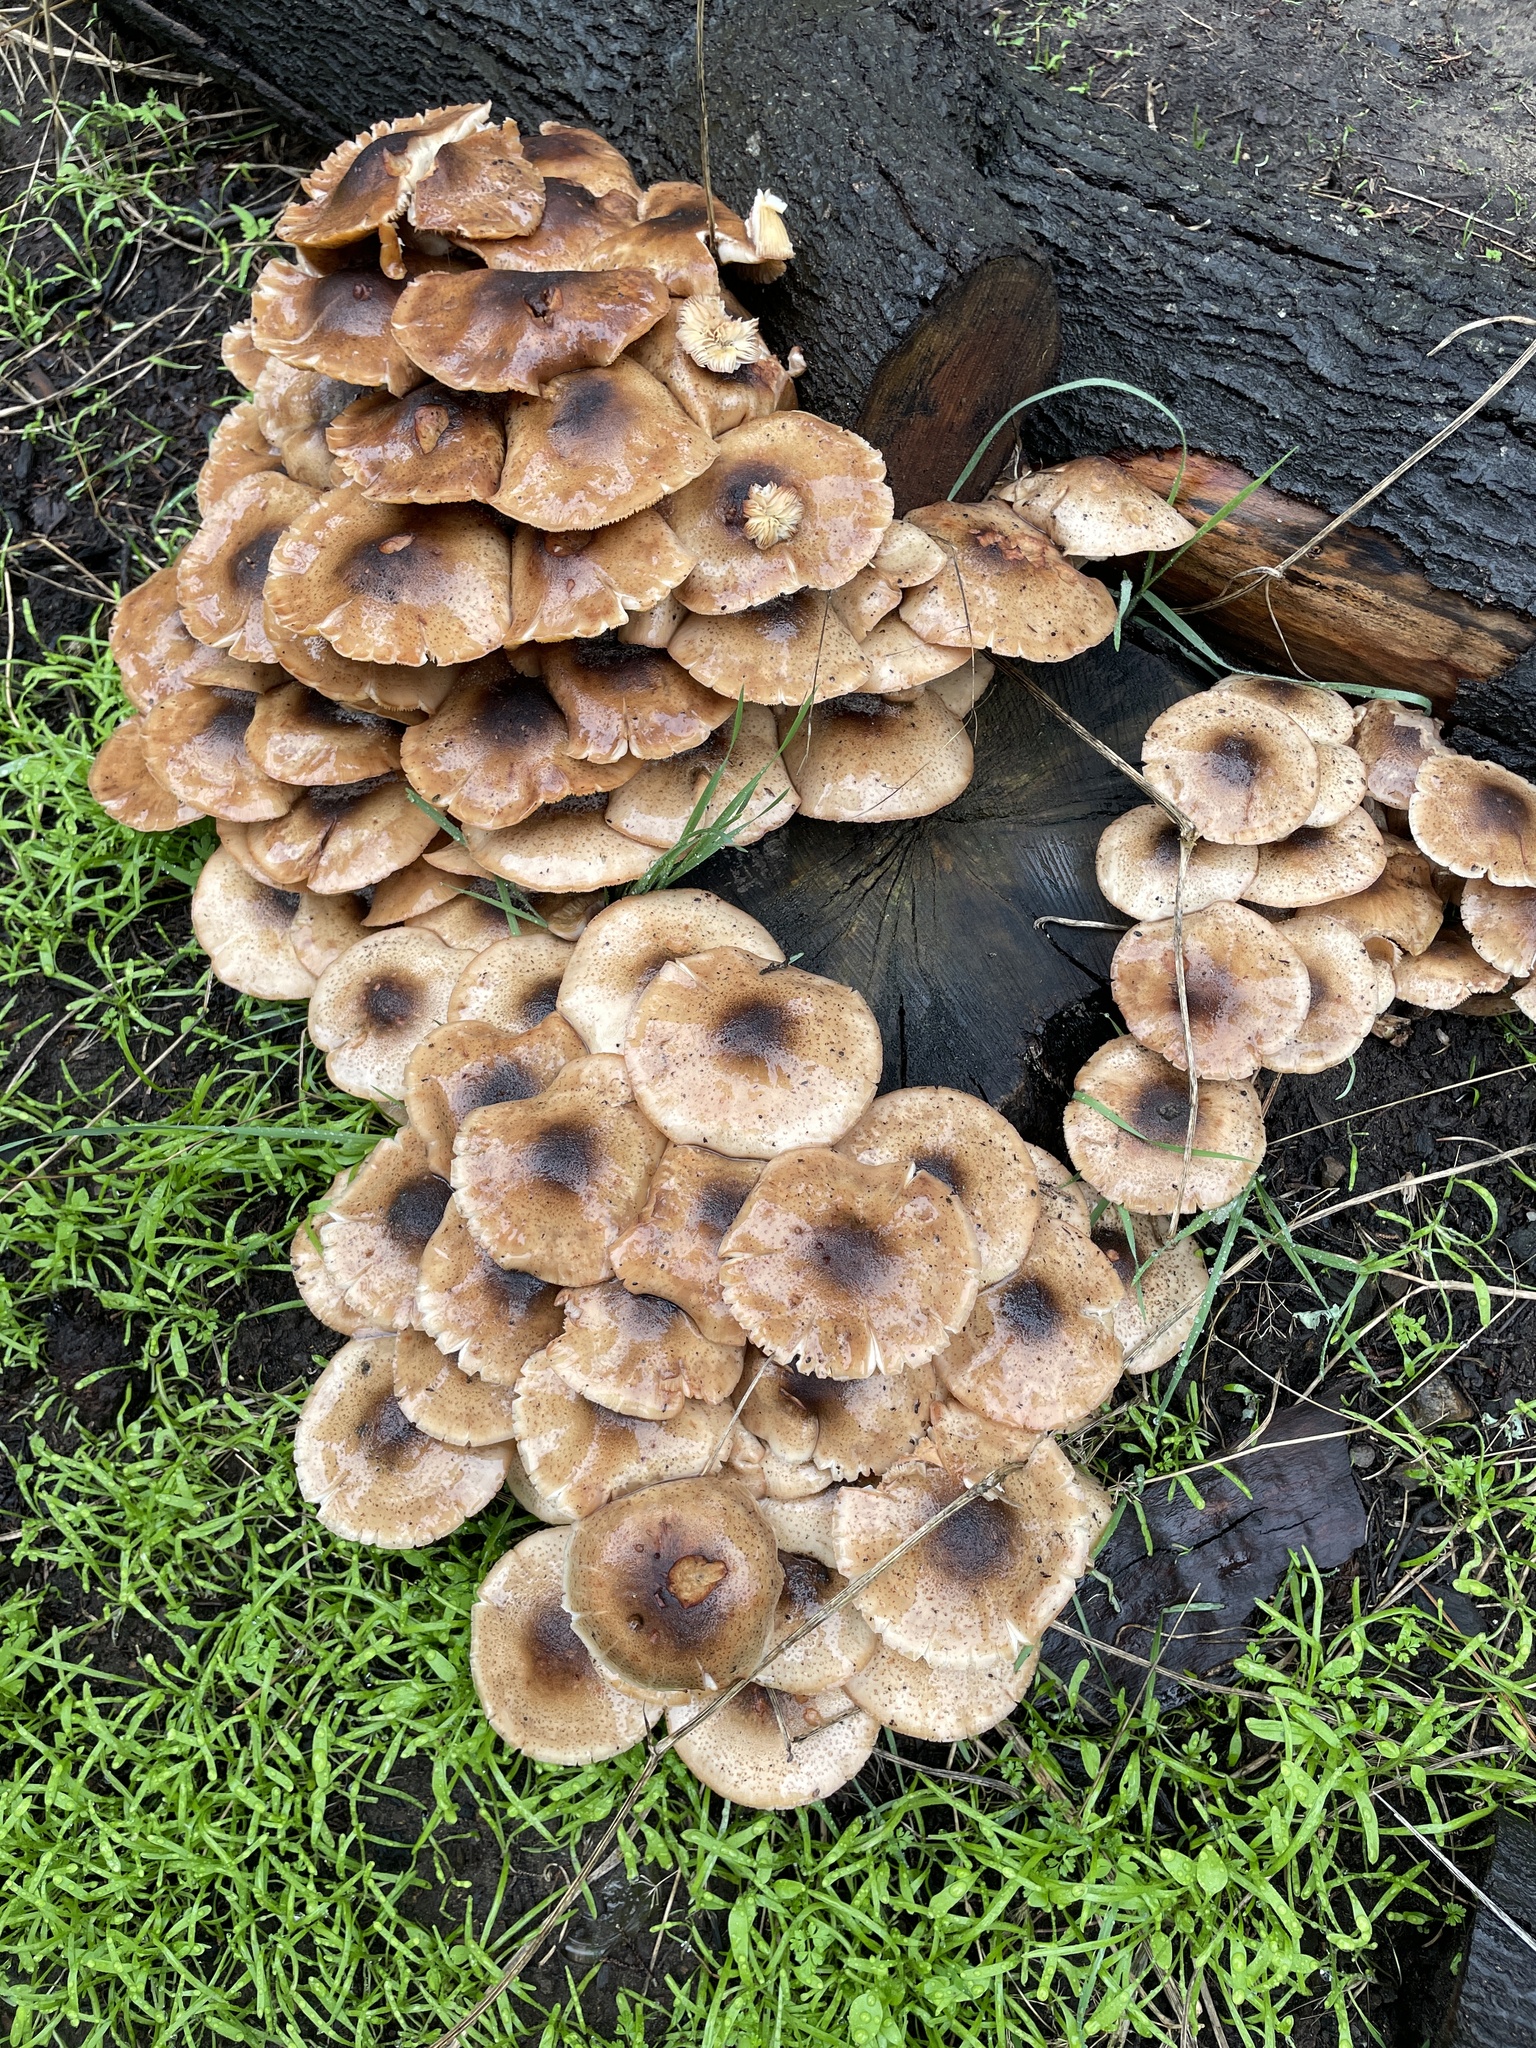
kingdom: Fungi
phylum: Basidiomycota
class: Agaricomycetes
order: Agaricales
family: Physalacriaceae
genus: Armillaria
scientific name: Armillaria mellea
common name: Honey fungus
